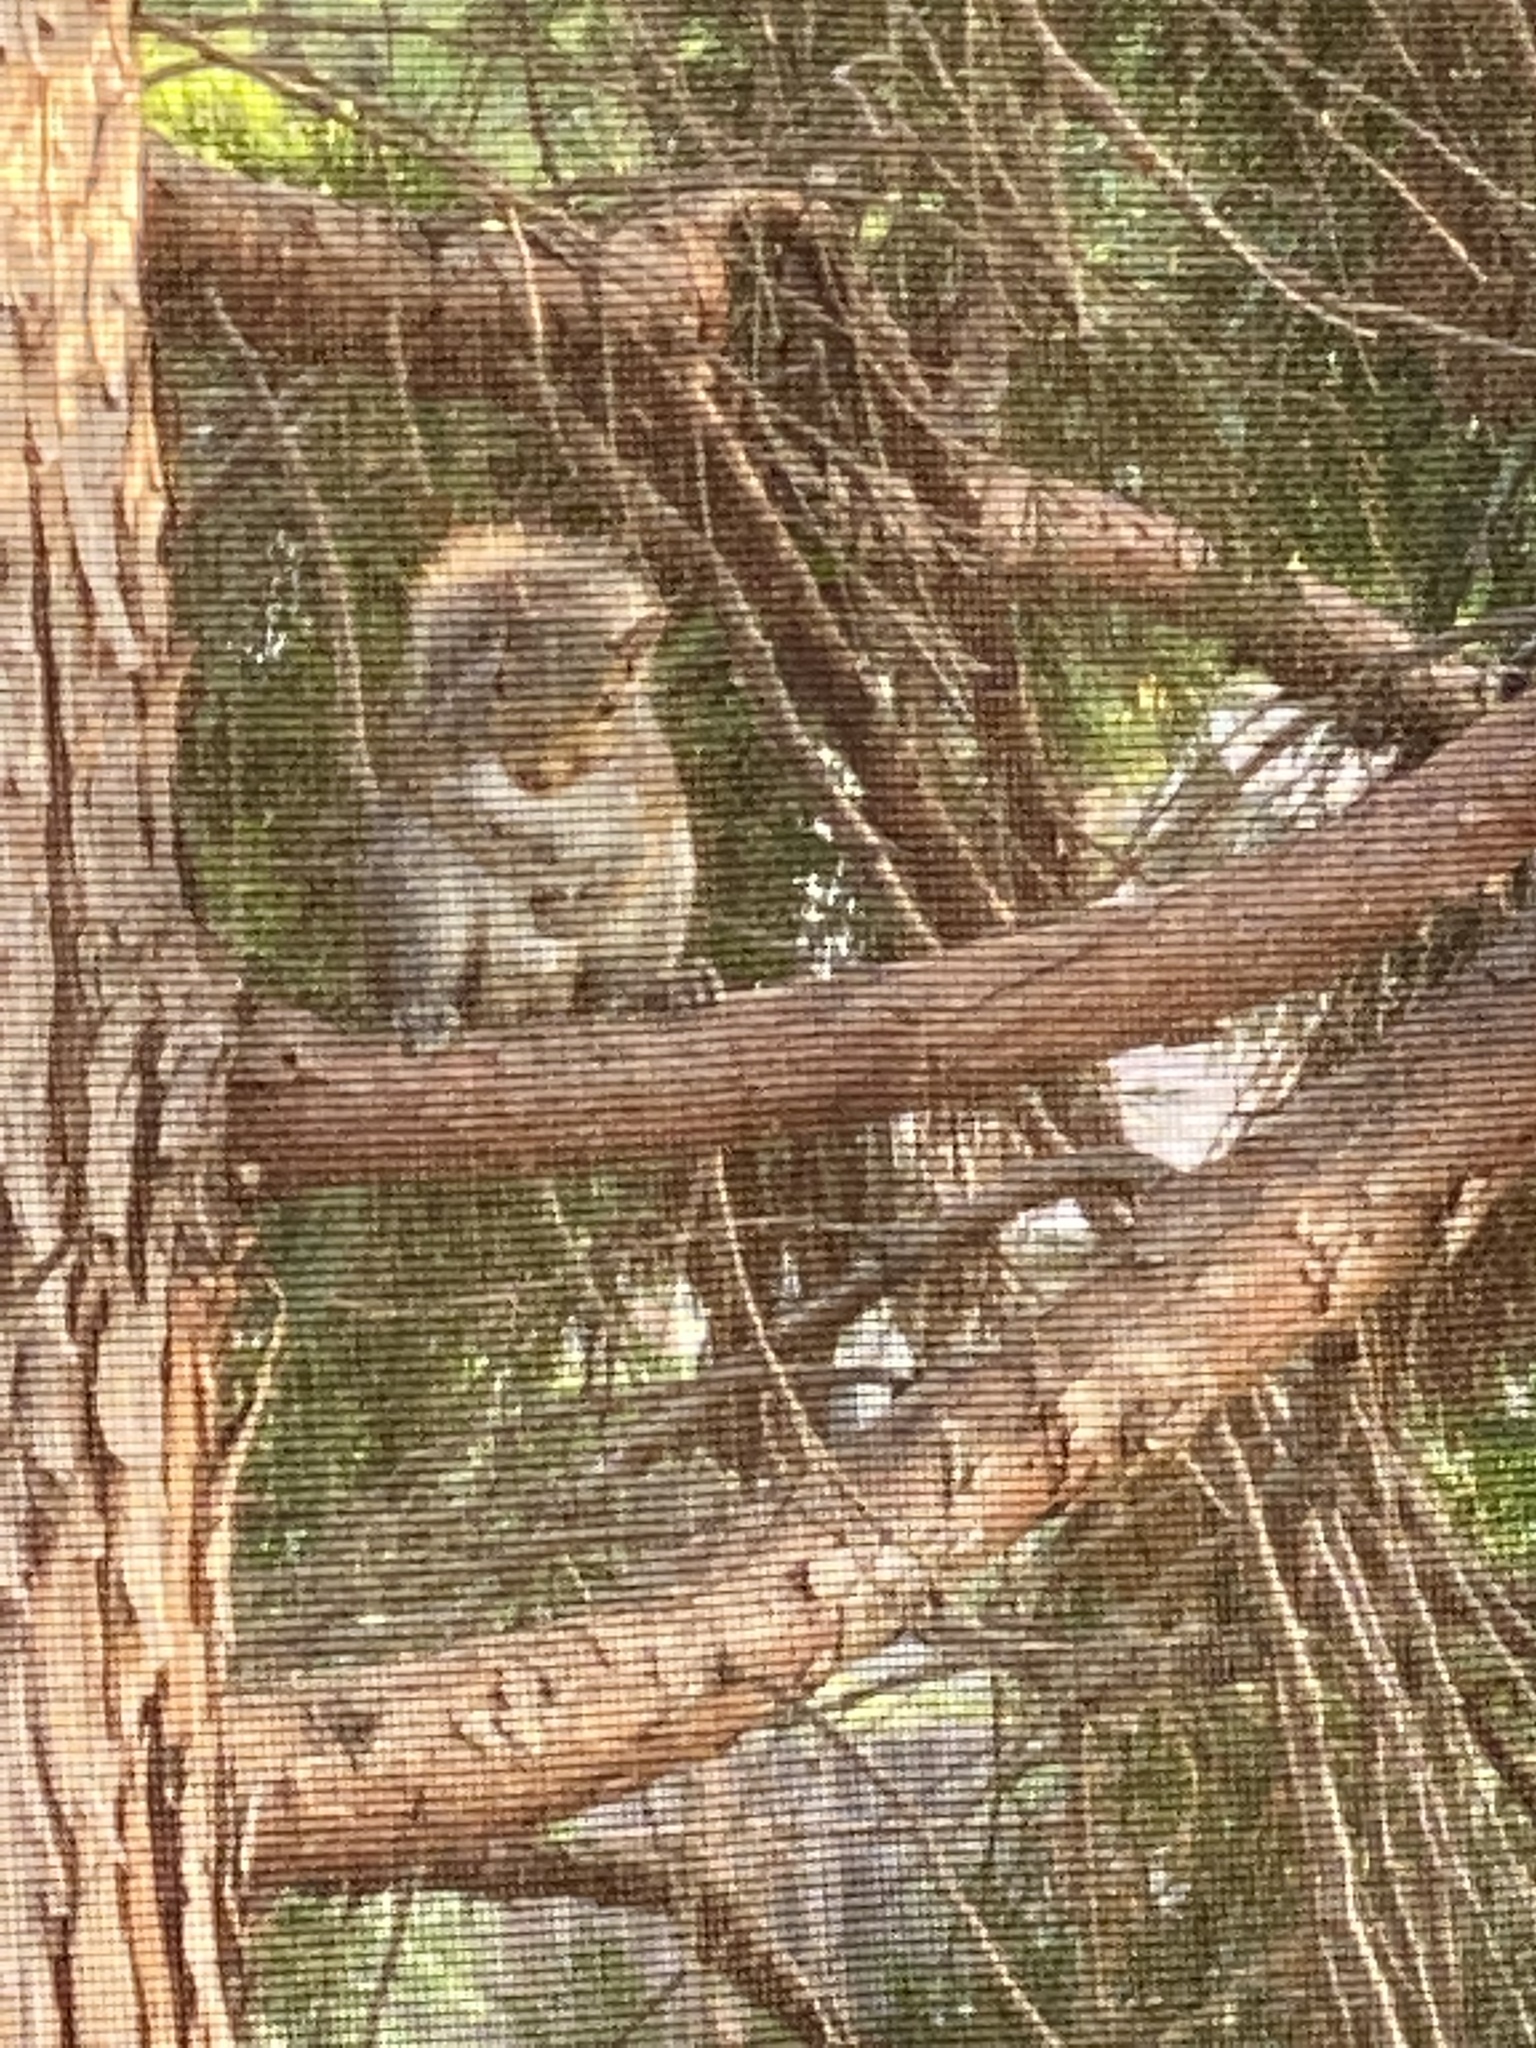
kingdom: Animalia
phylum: Chordata
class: Mammalia
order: Rodentia
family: Sciuridae
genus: Sciurus
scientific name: Sciurus carolinensis
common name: Eastern gray squirrel
